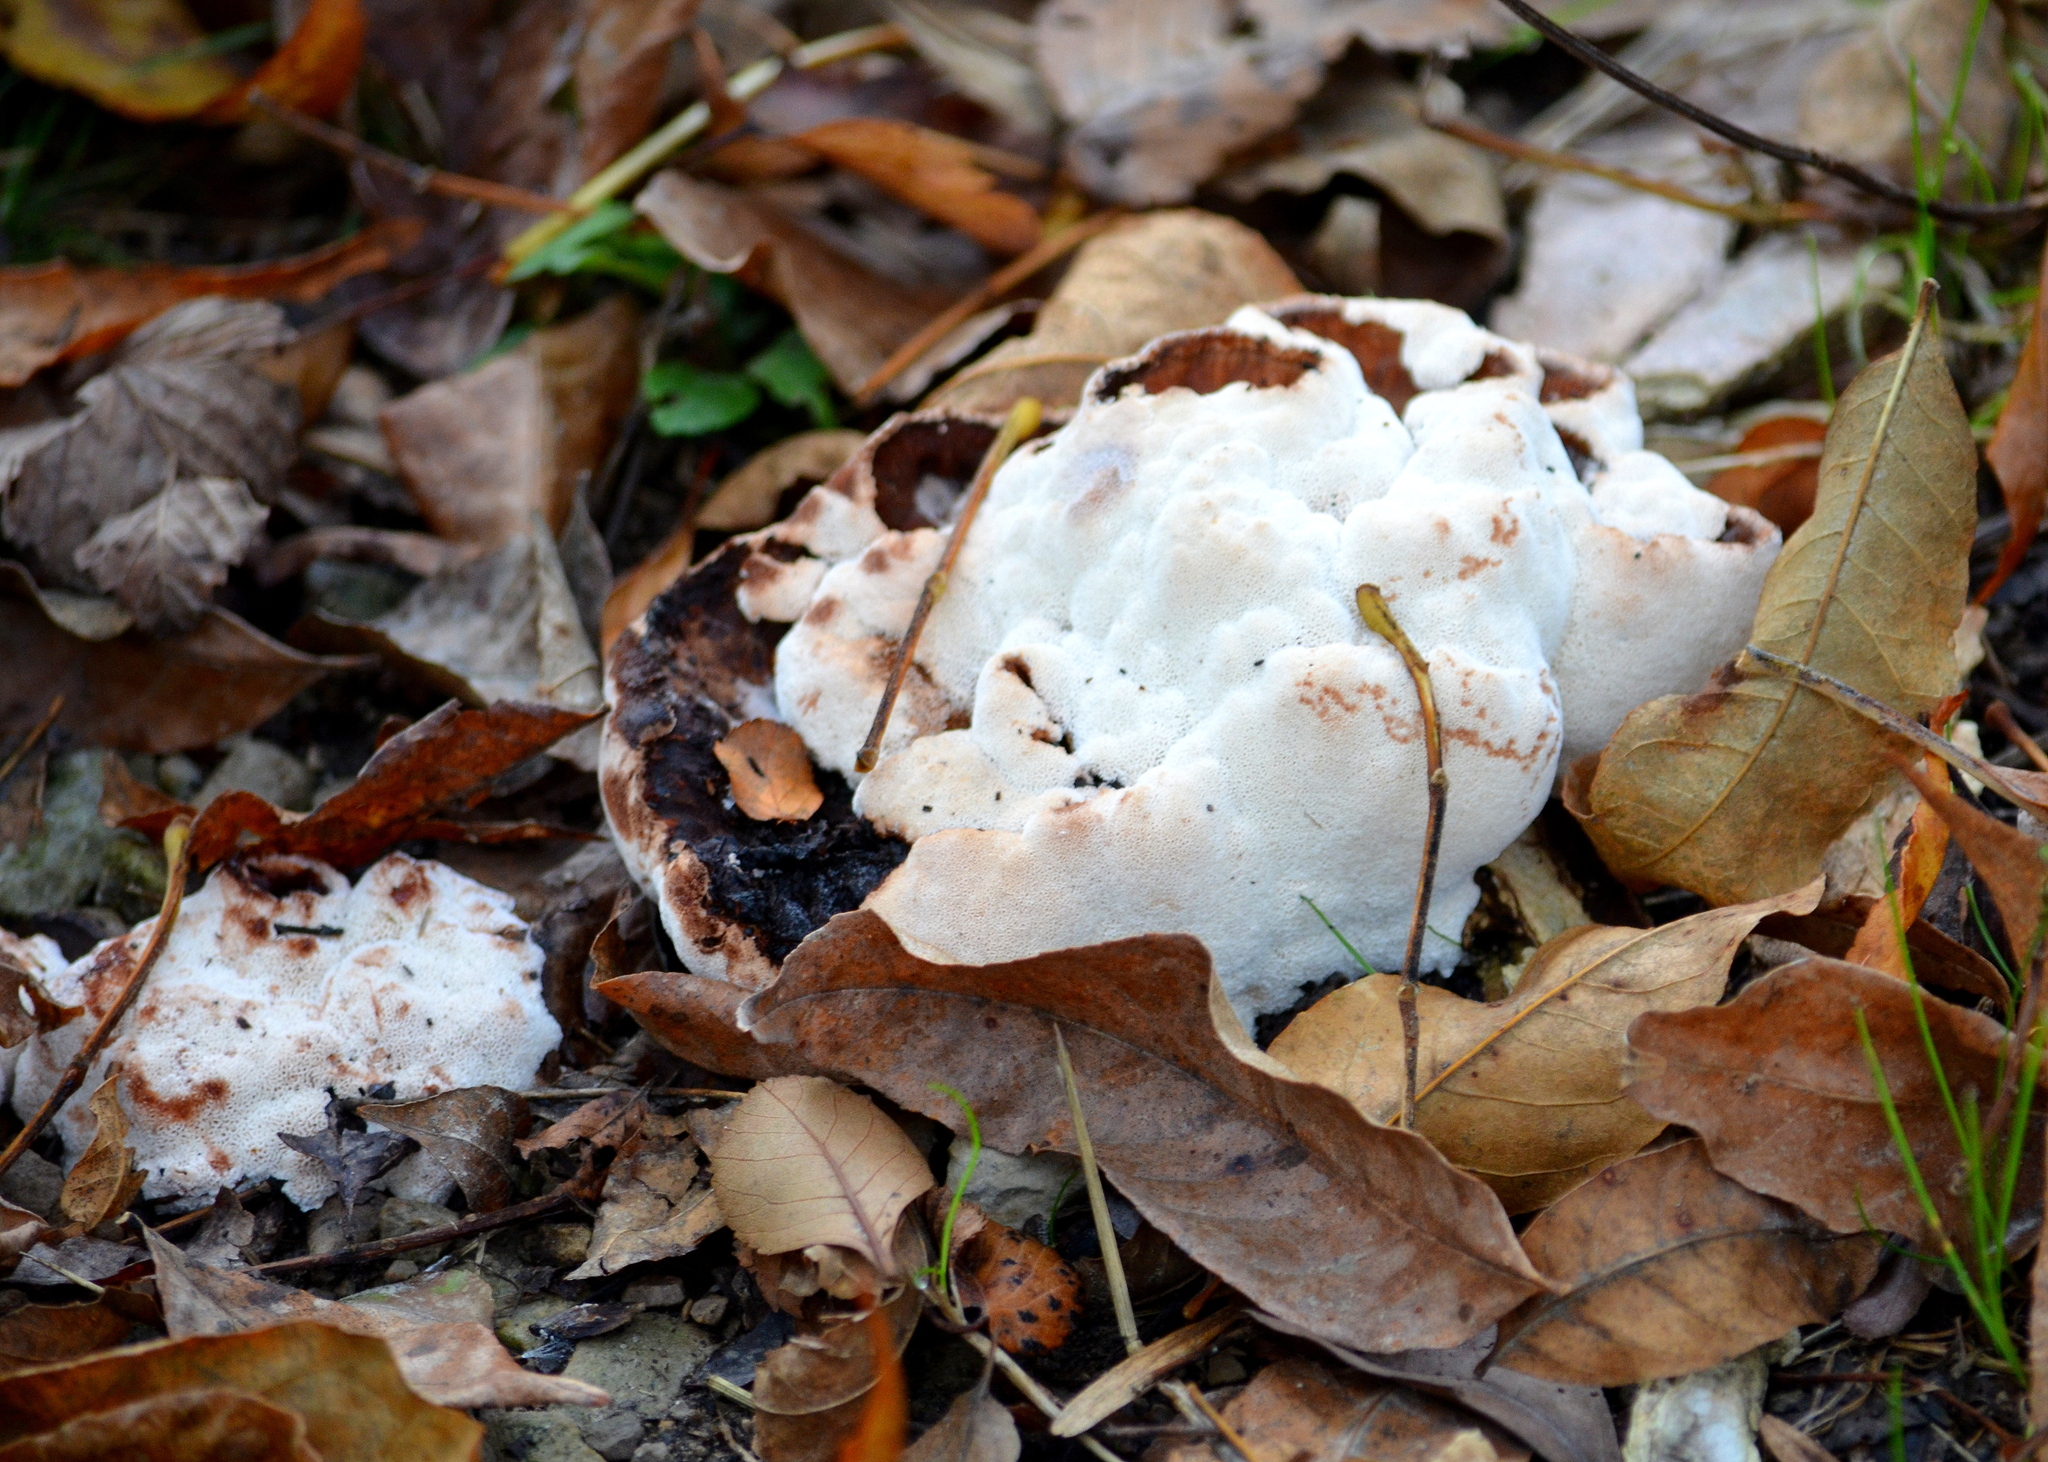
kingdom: Fungi
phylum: Basidiomycota
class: Agaricomycetes
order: Polyporales
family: Podoscyphaceae
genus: Abortiporus
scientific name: Abortiporus biennis
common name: Blushing rosette
